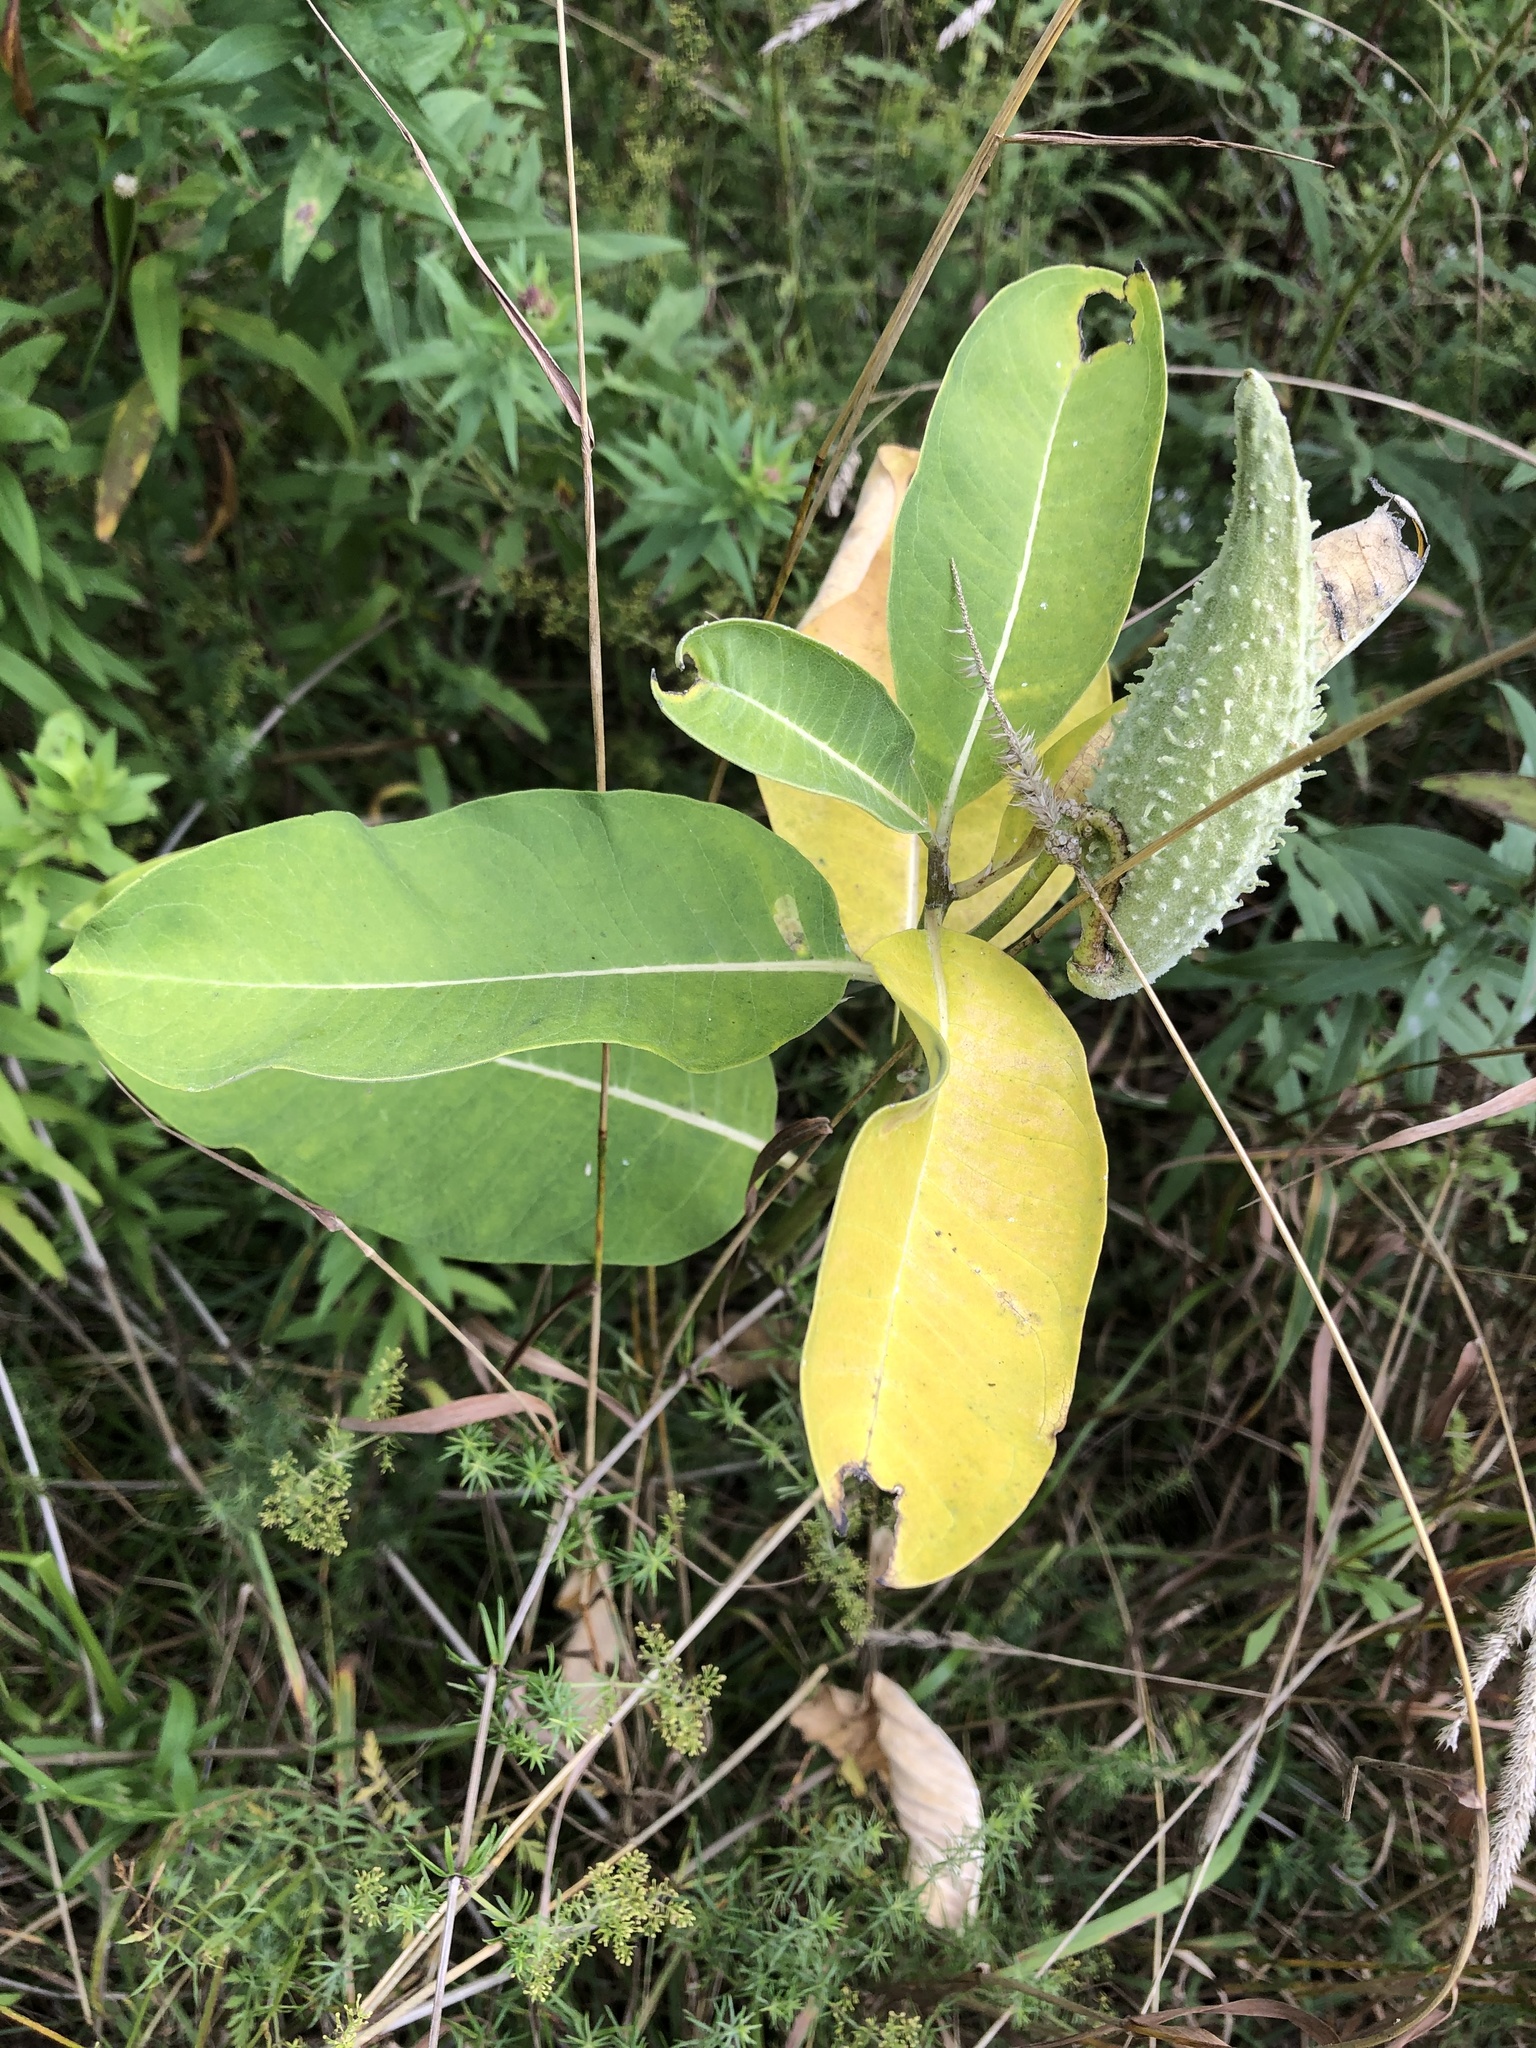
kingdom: Plantae
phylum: Tracheophyta
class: Magnoliopsida
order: Gentianales
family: Apocynaceae
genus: Asclepias
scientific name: Asclepias syriaca
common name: Common milkweed
